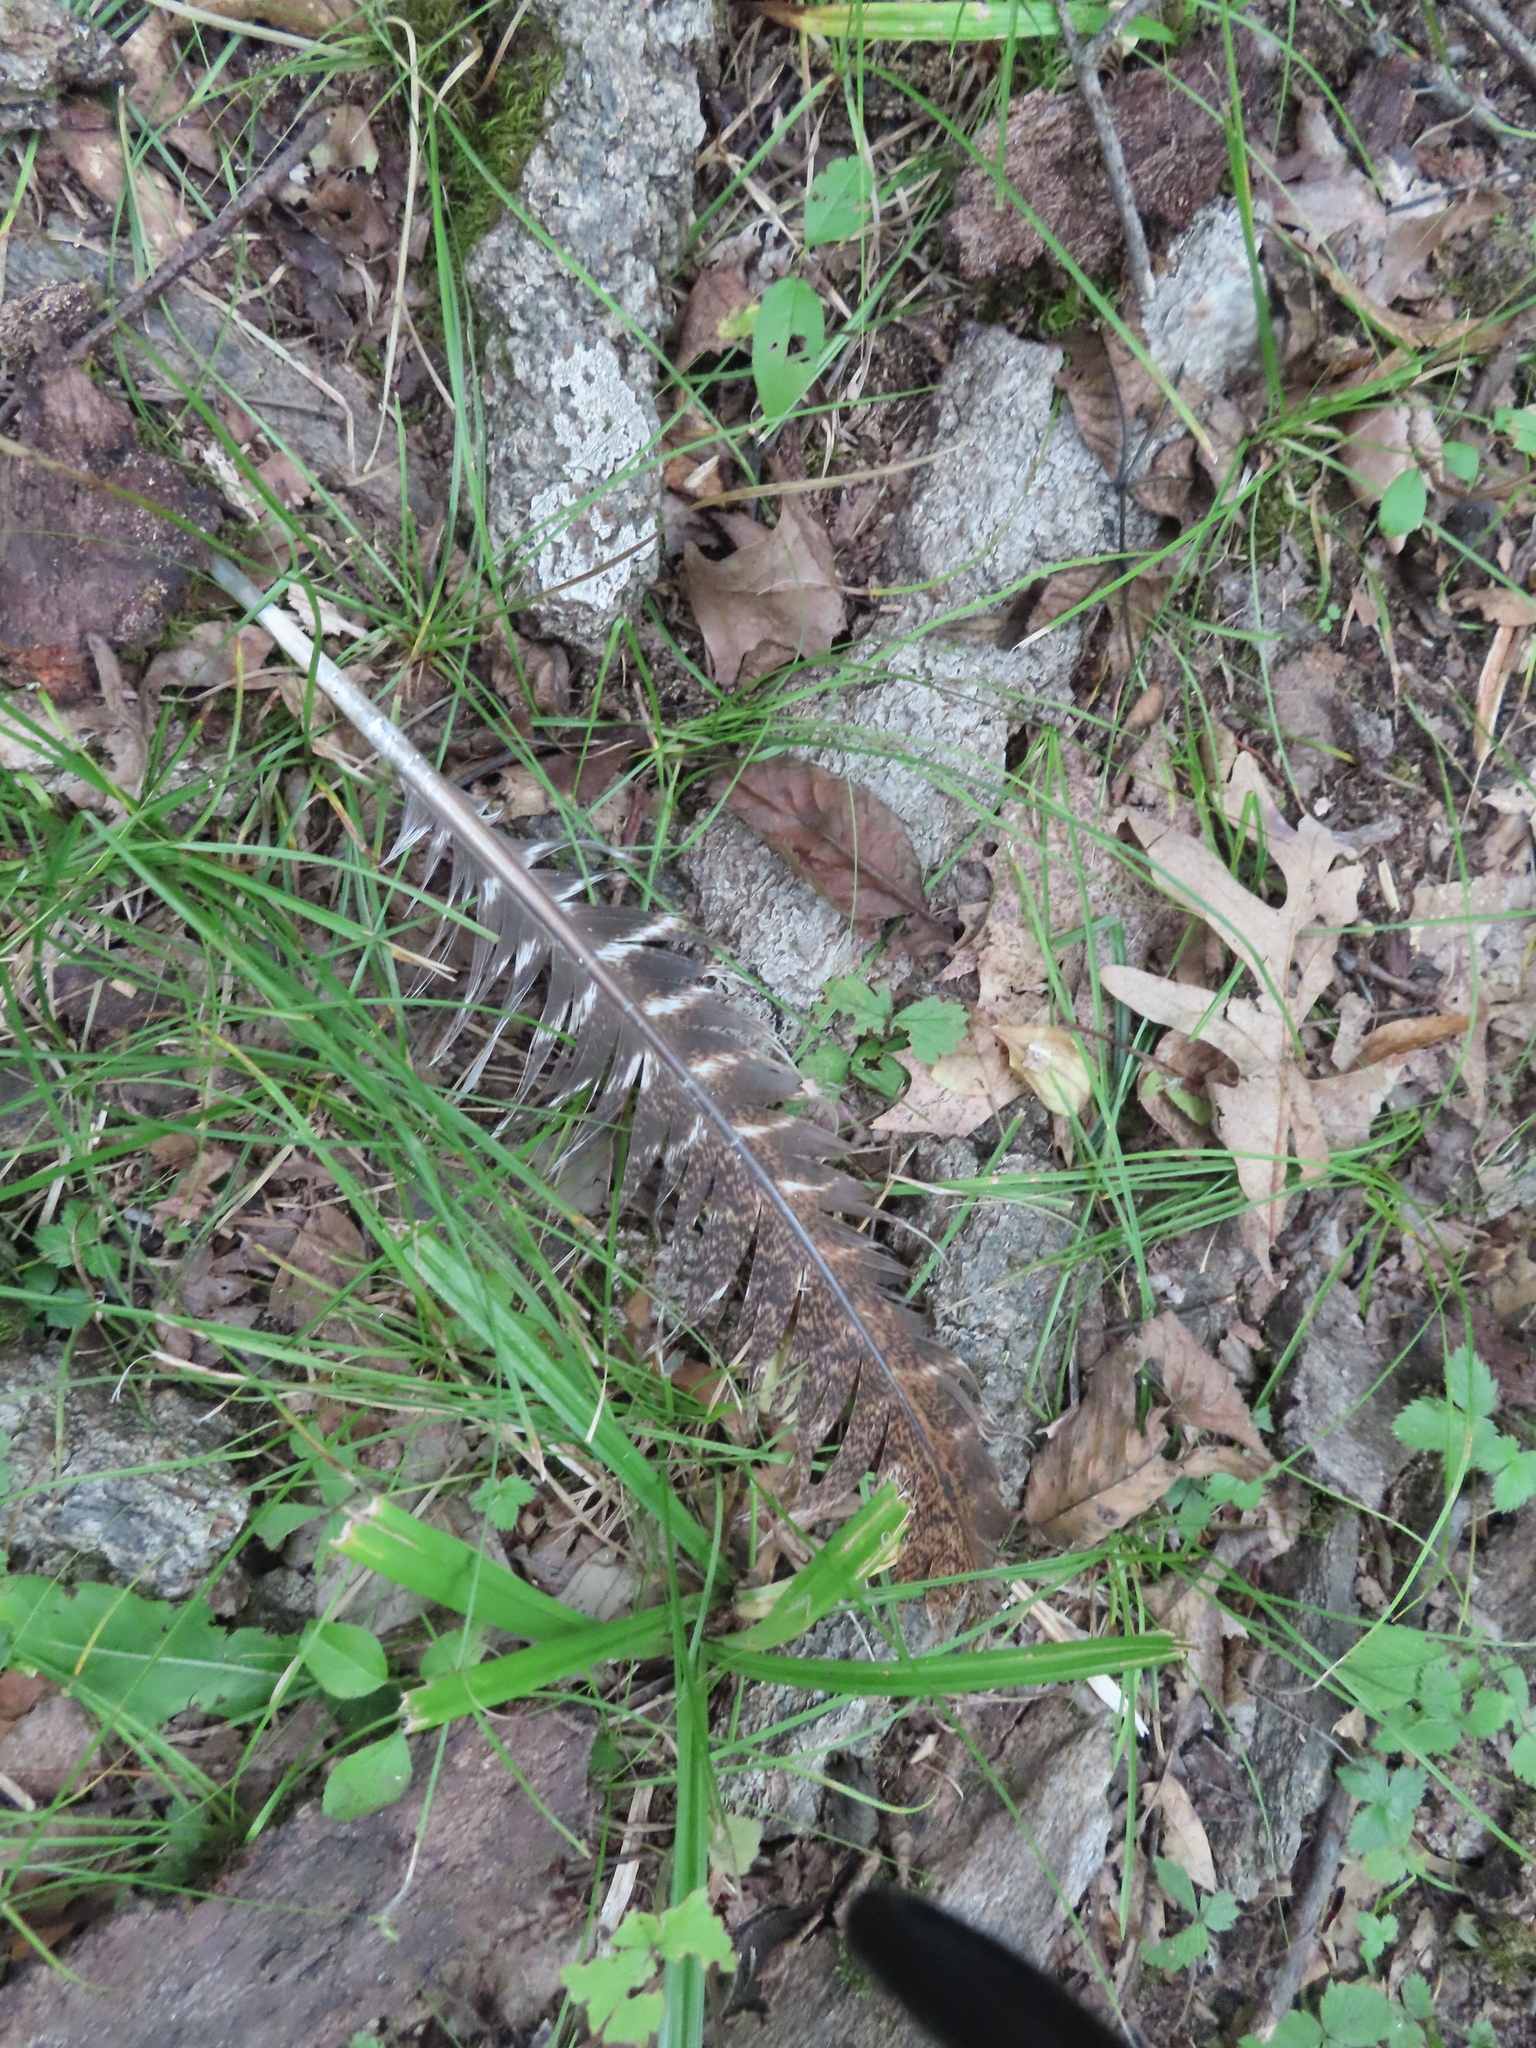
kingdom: Animalia
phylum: Chordata
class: Aves
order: Galliformes
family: Phasianidae
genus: Meleagris
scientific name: Meleagris gallopavo
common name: Wild turkey
